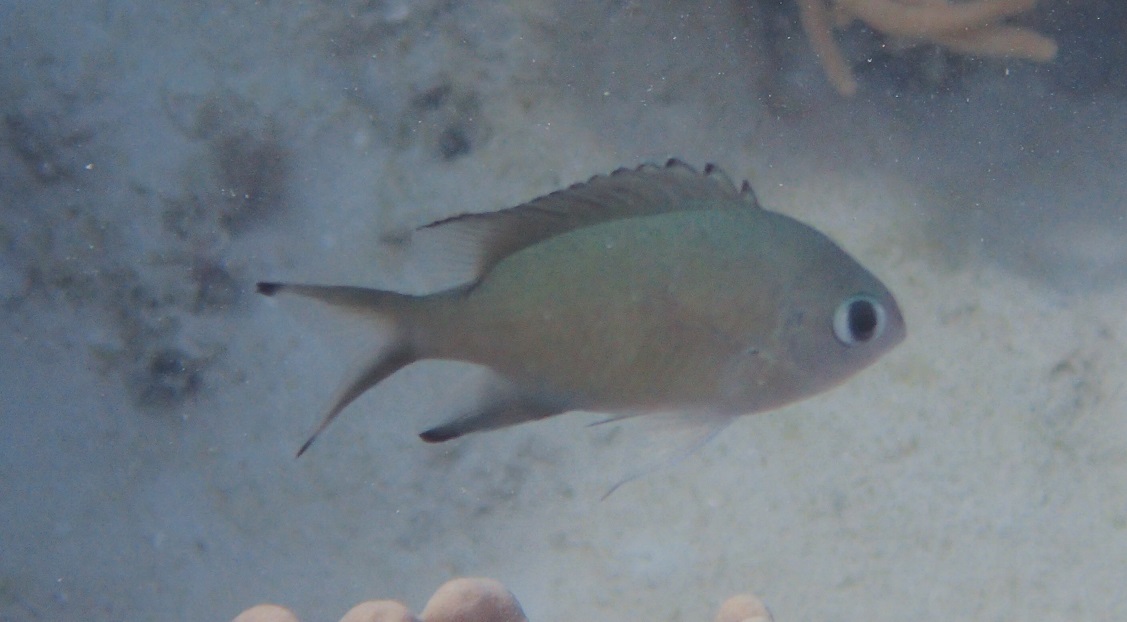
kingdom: Animalia
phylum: Chordata
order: Perciformes
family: Pomacentridae
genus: Chromis
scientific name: Chromis lepidolepis
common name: Scaly chromis
